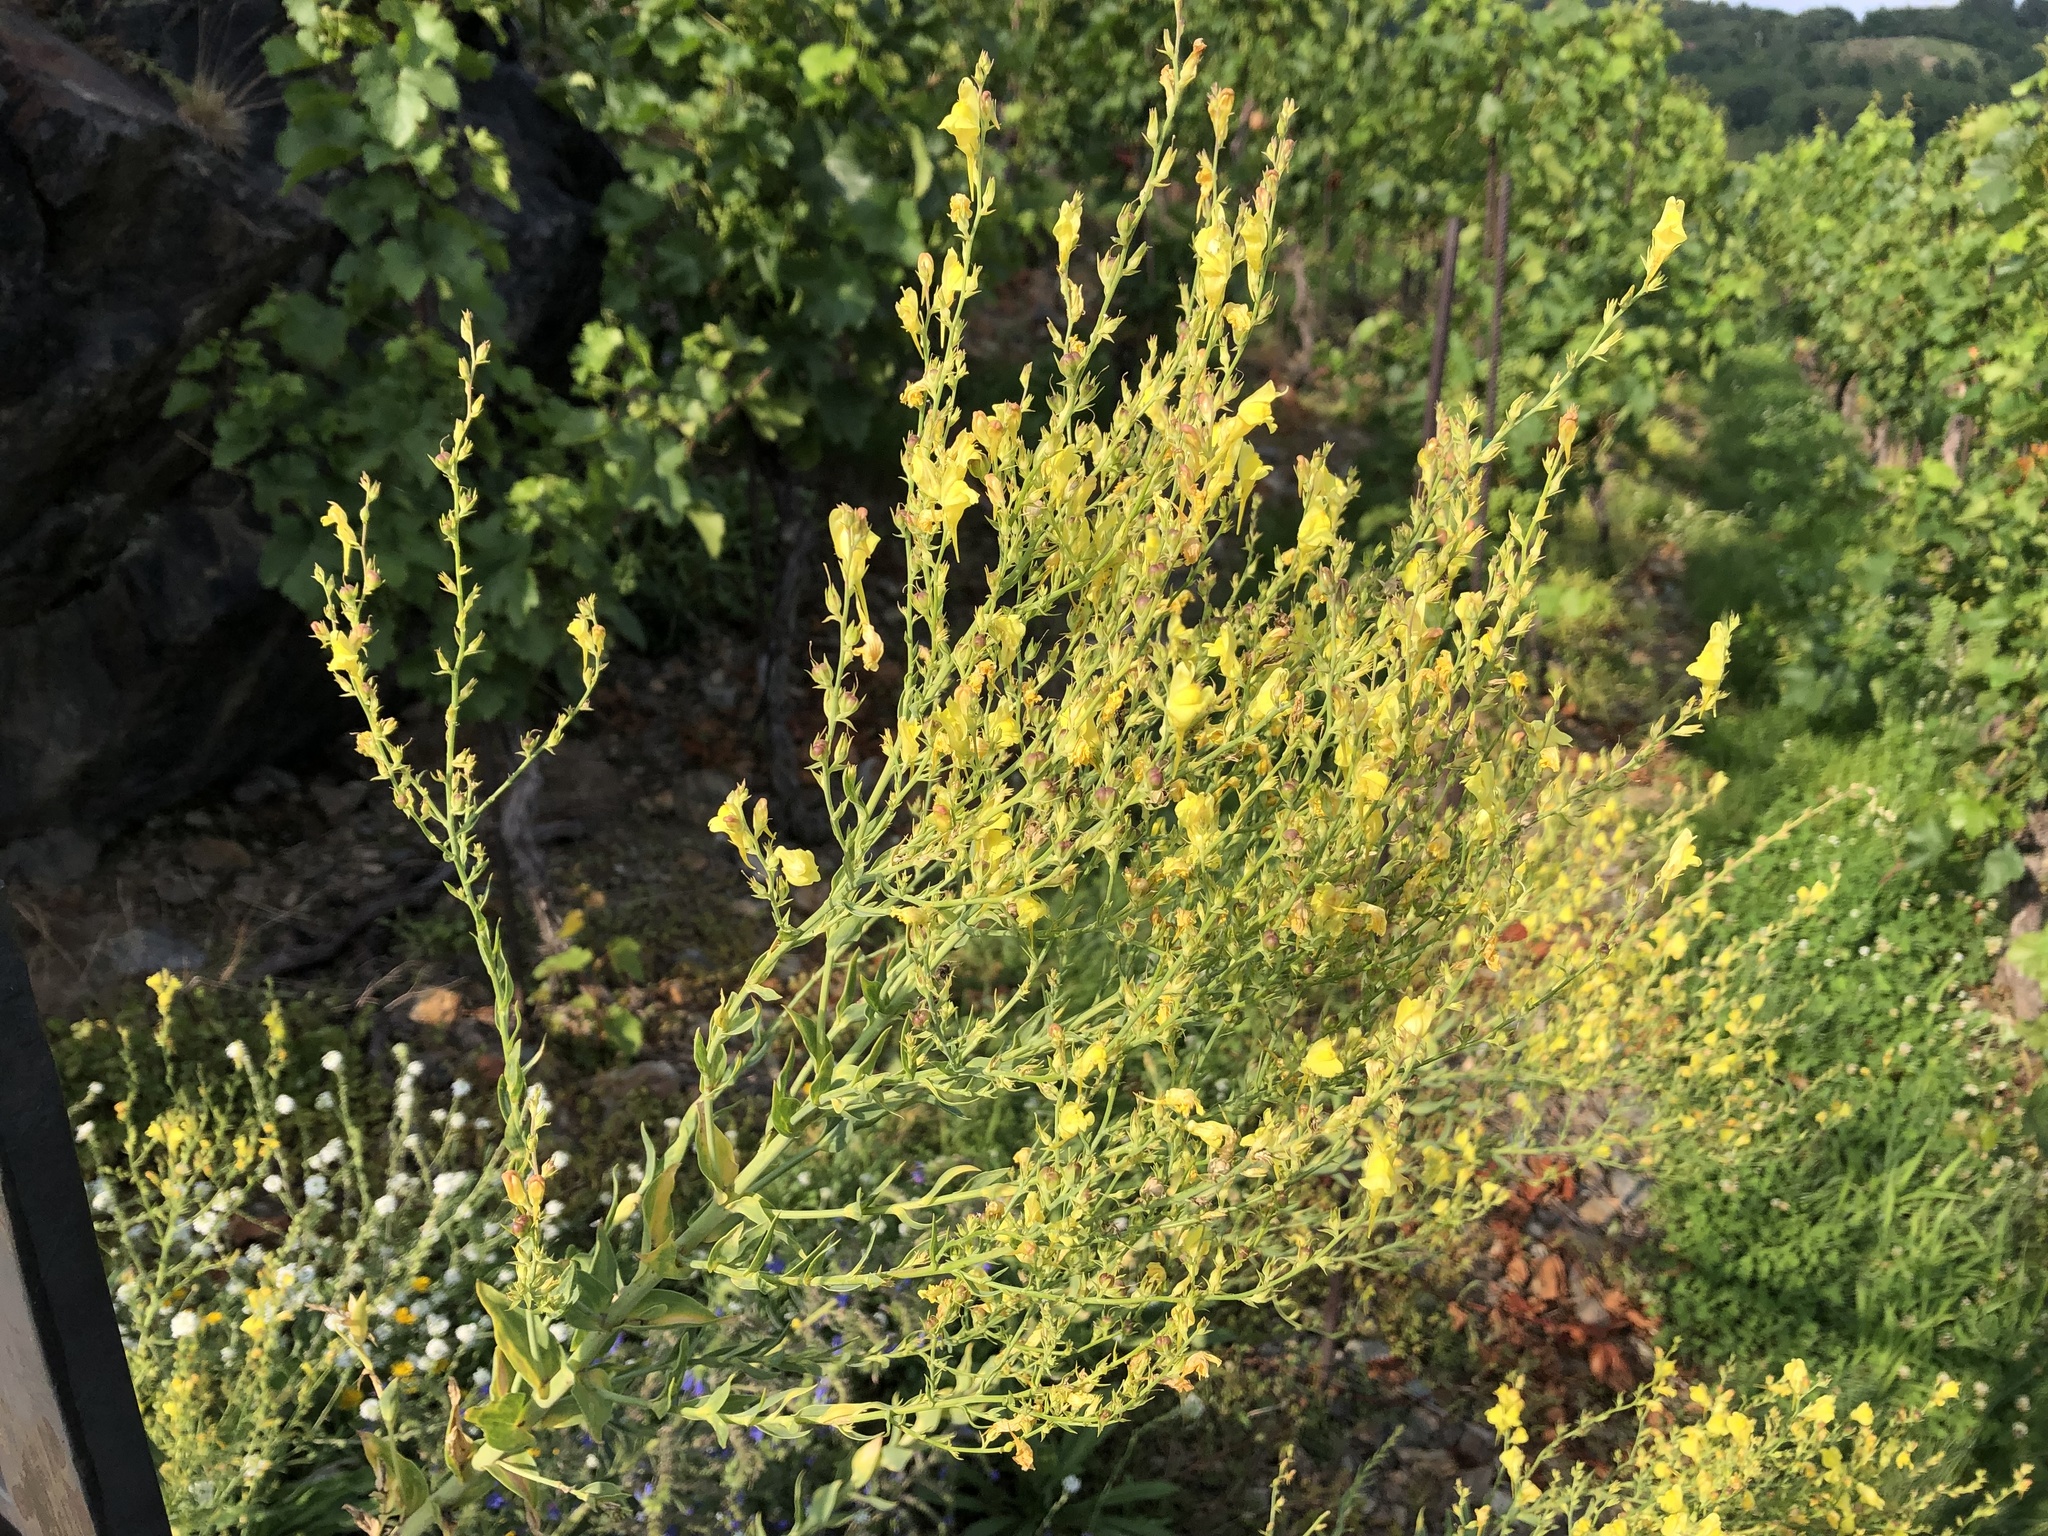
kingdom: Plantae
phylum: Tracheophyta
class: Magnoliopsida
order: Lamiales
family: Plantaginaceae
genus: Linaria
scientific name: Linaria genistifolia
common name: Broomleaf toadflax
